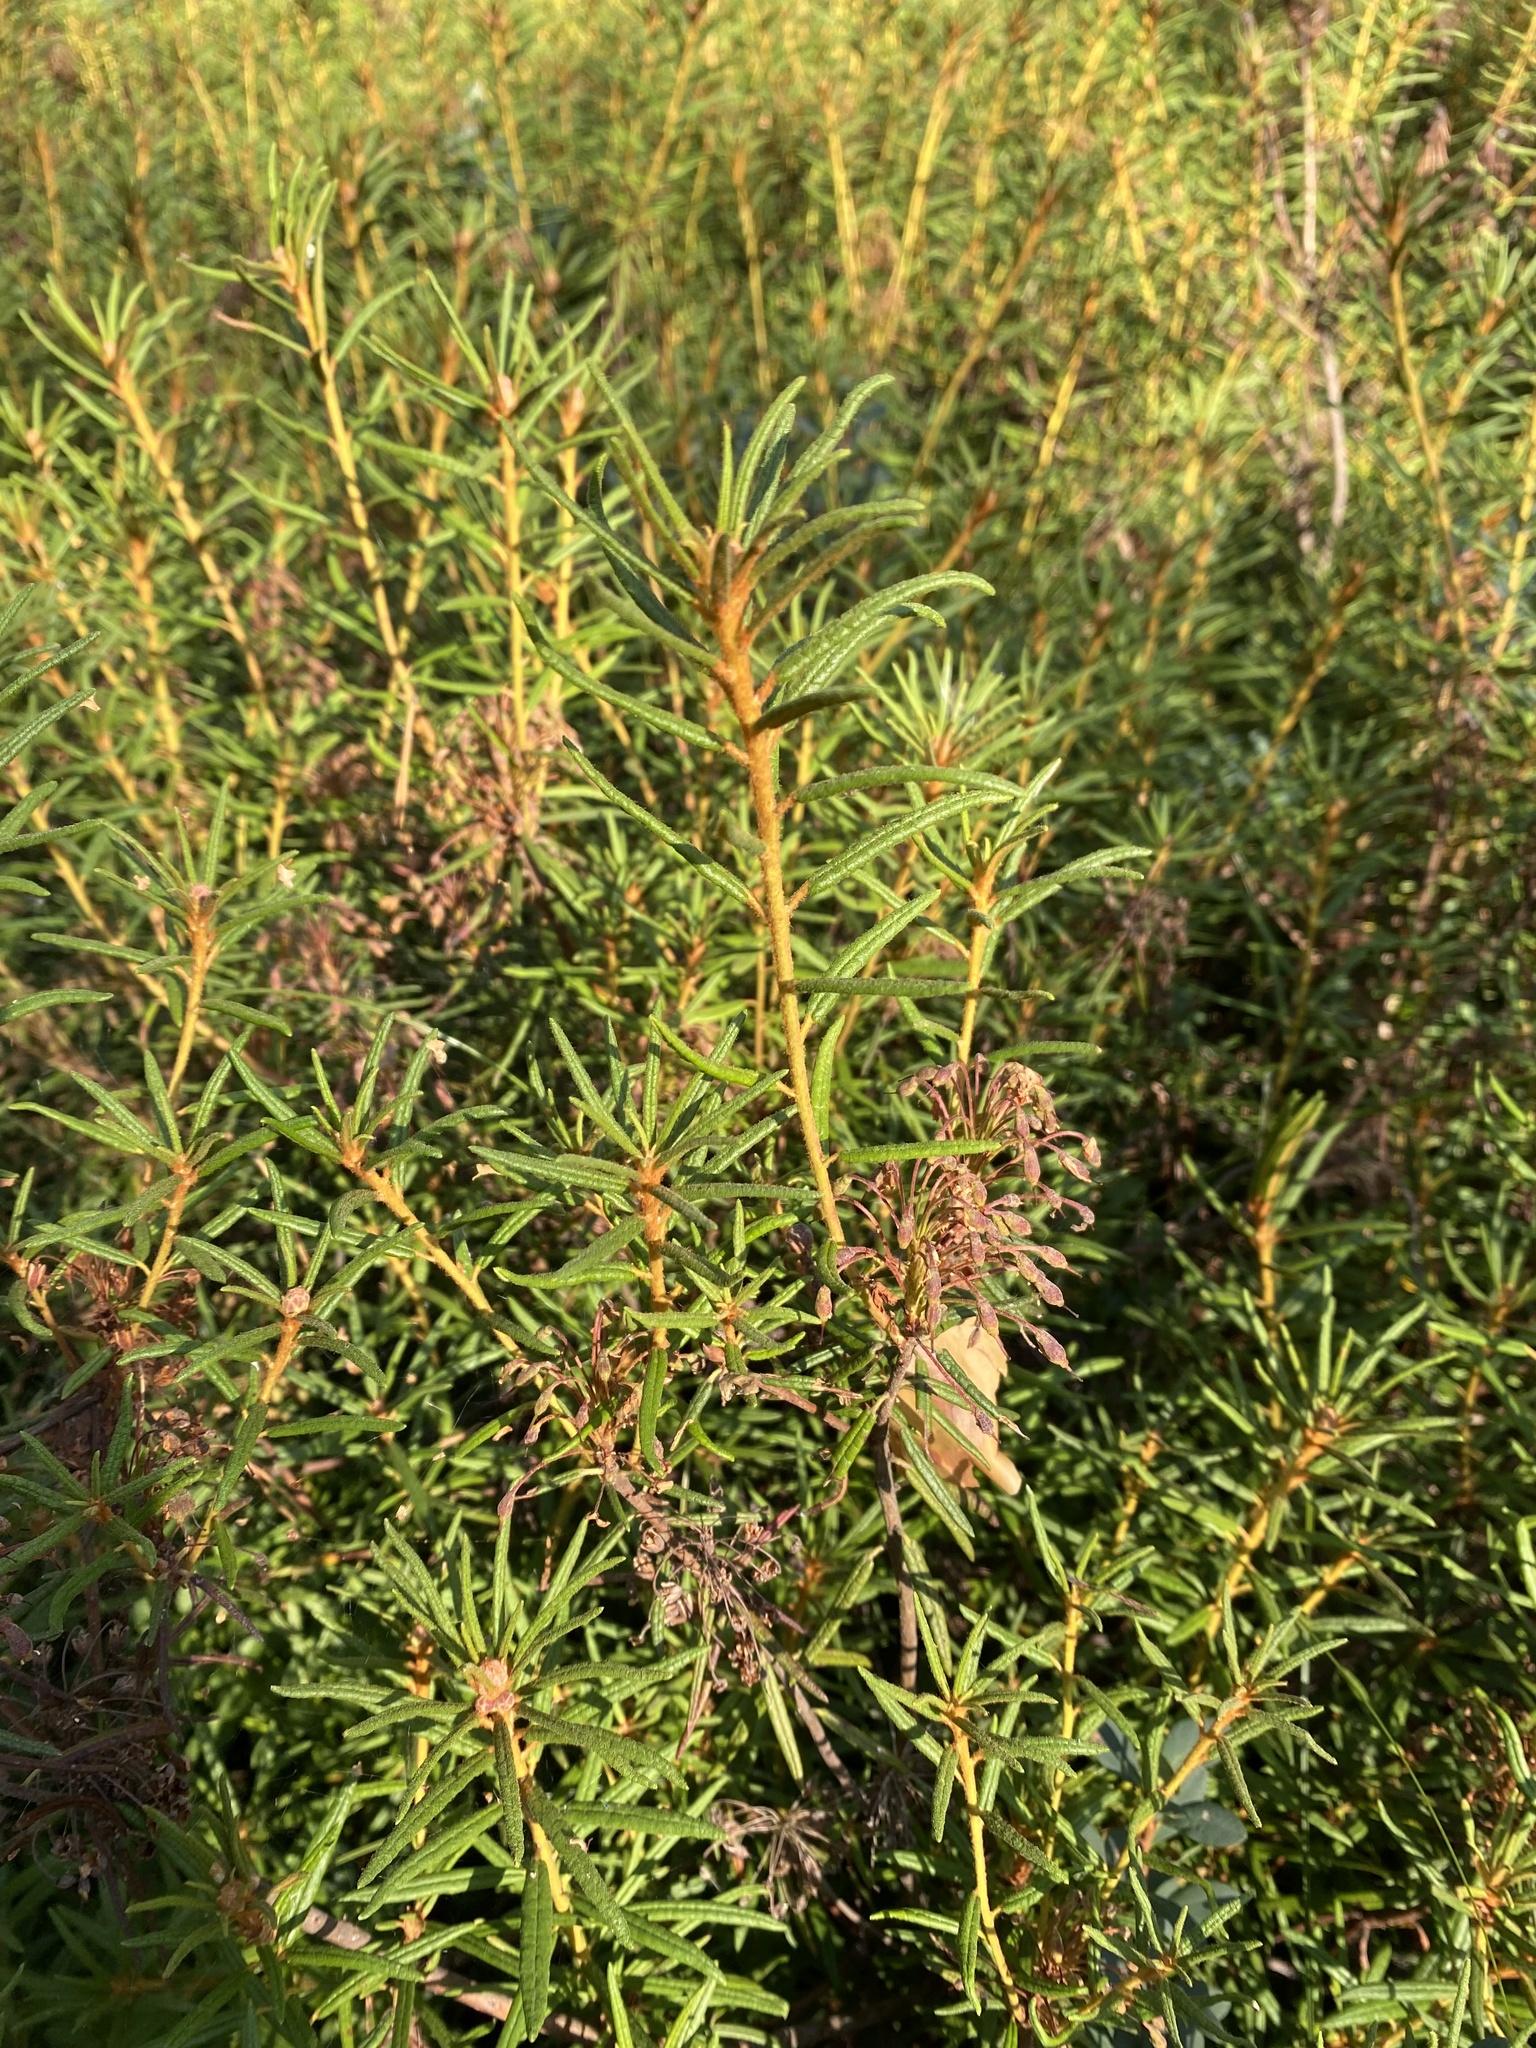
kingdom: Plantae
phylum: Tracheophyta
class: Magnoliopsida
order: Ericales
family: Ericaceae
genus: Rhododendron
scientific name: Rhododendron tomentosum
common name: Marsh labrador tea
